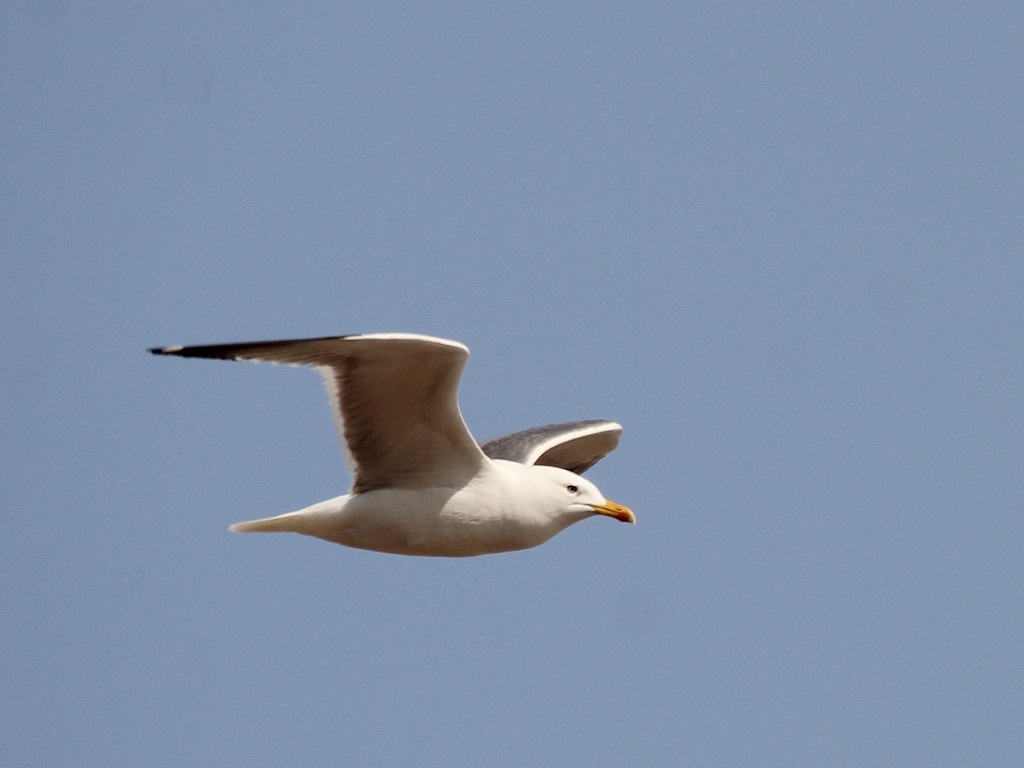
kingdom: Animalia
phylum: Chordata
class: Aves
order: Charadriiformes
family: Laridae
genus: Larus
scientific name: Larus fuscus
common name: Lesser black-backed gull
